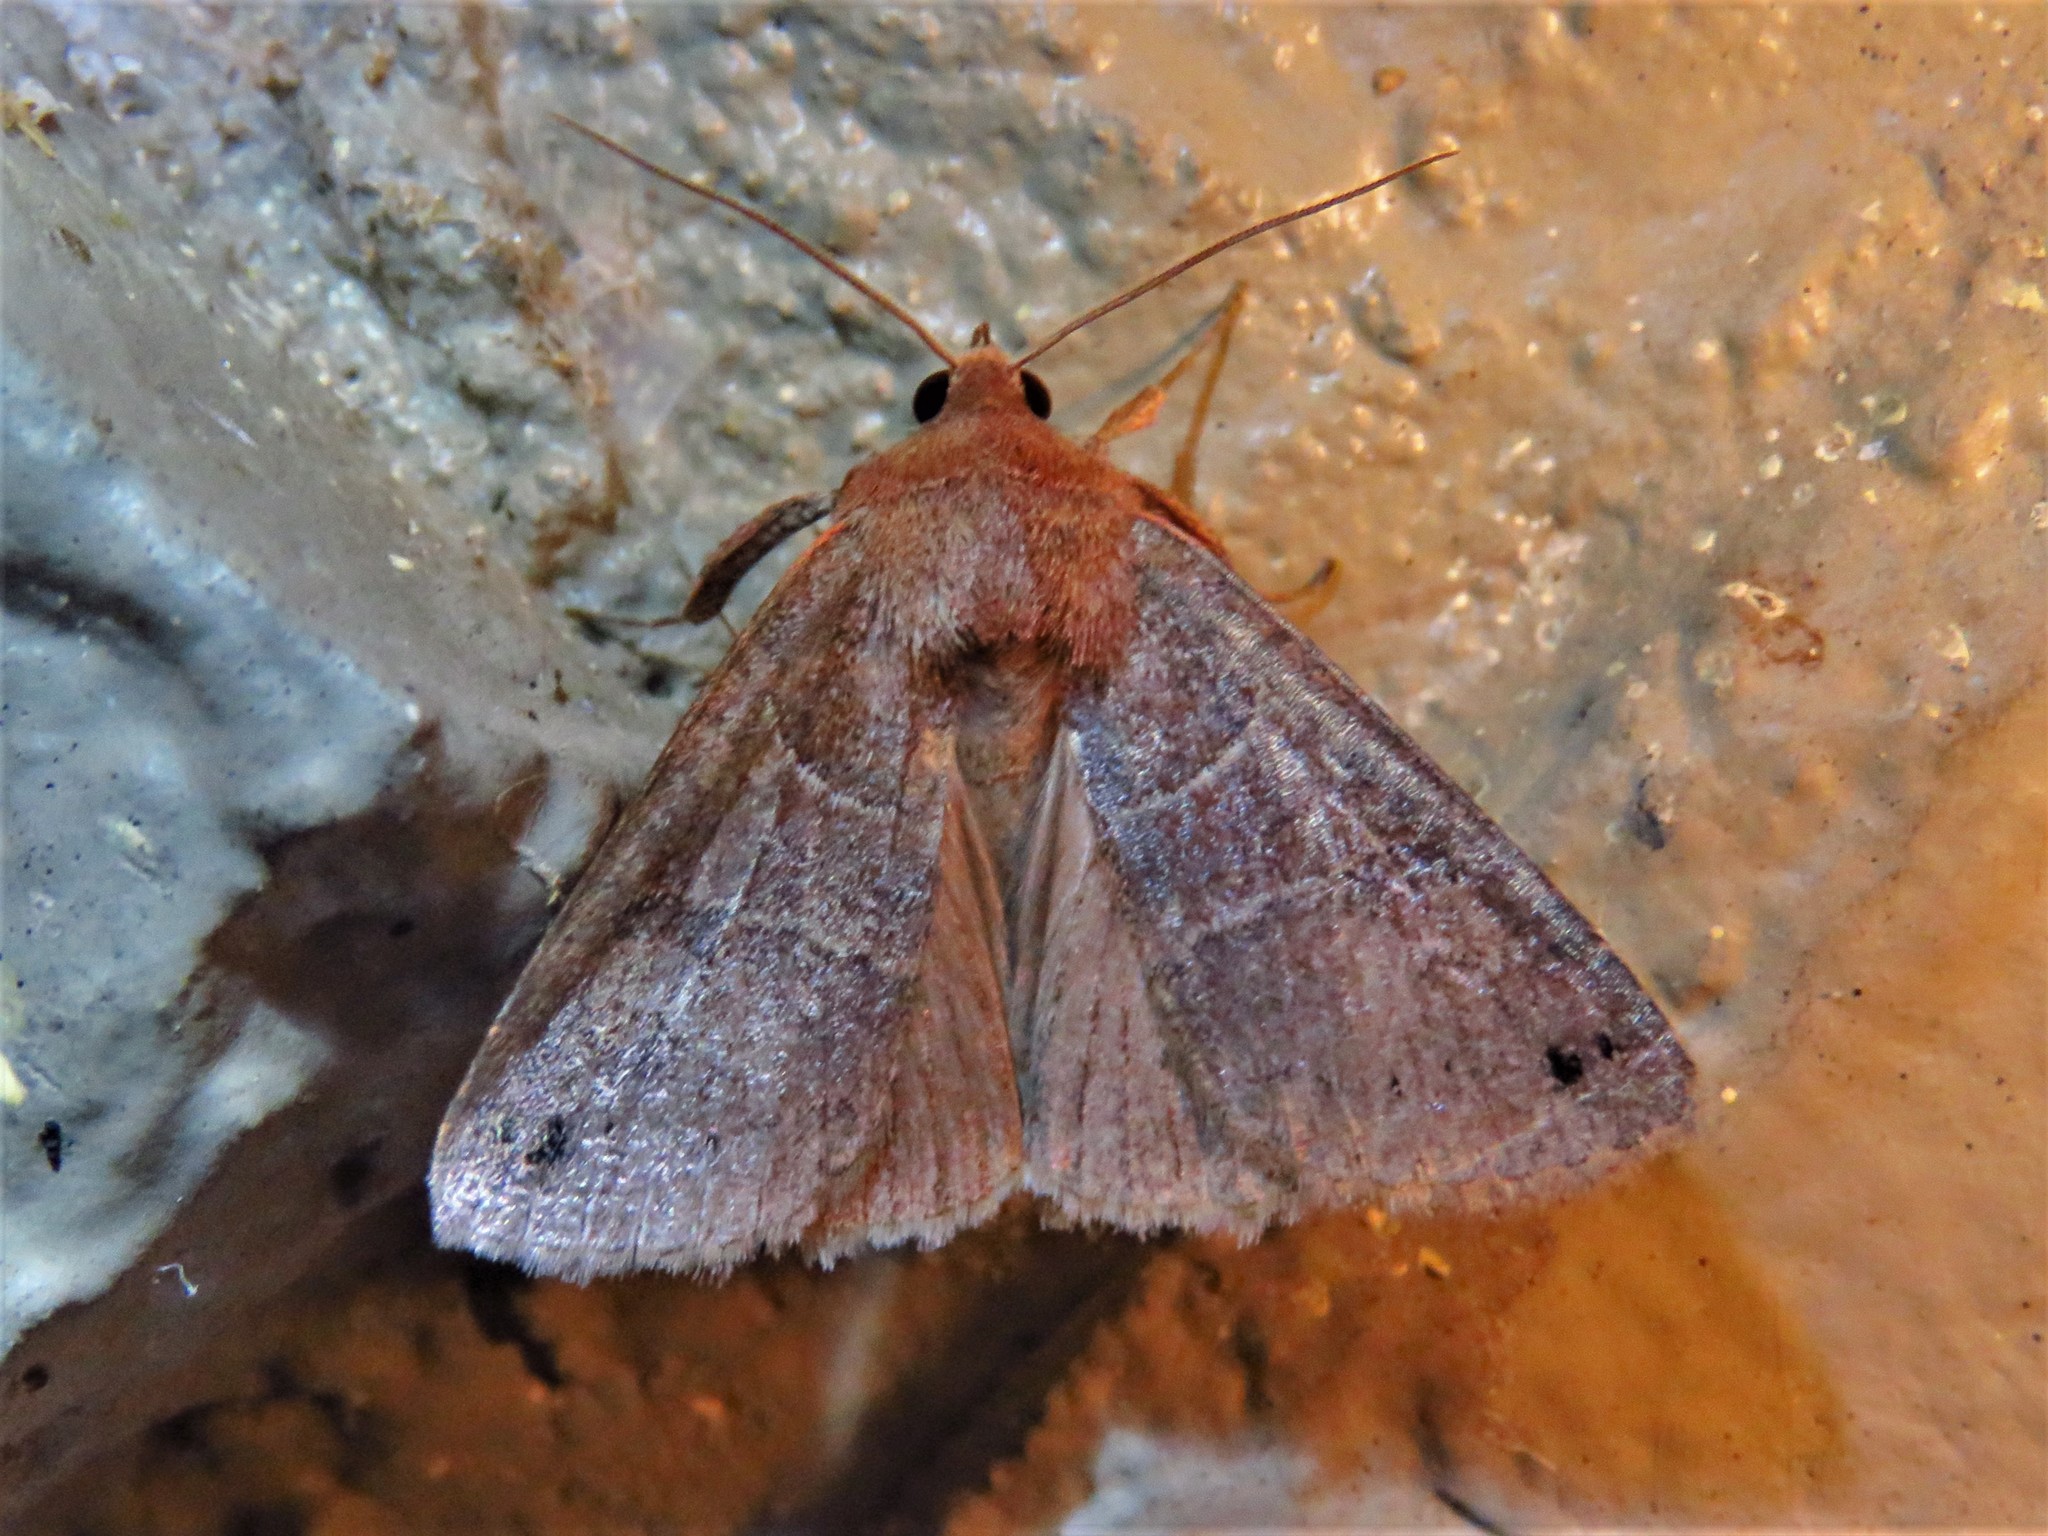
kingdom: Animalia
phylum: Arthropoda
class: Insecta
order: Lepidoptera
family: Erebidae
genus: Cissusa
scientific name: Cissusa spadix
